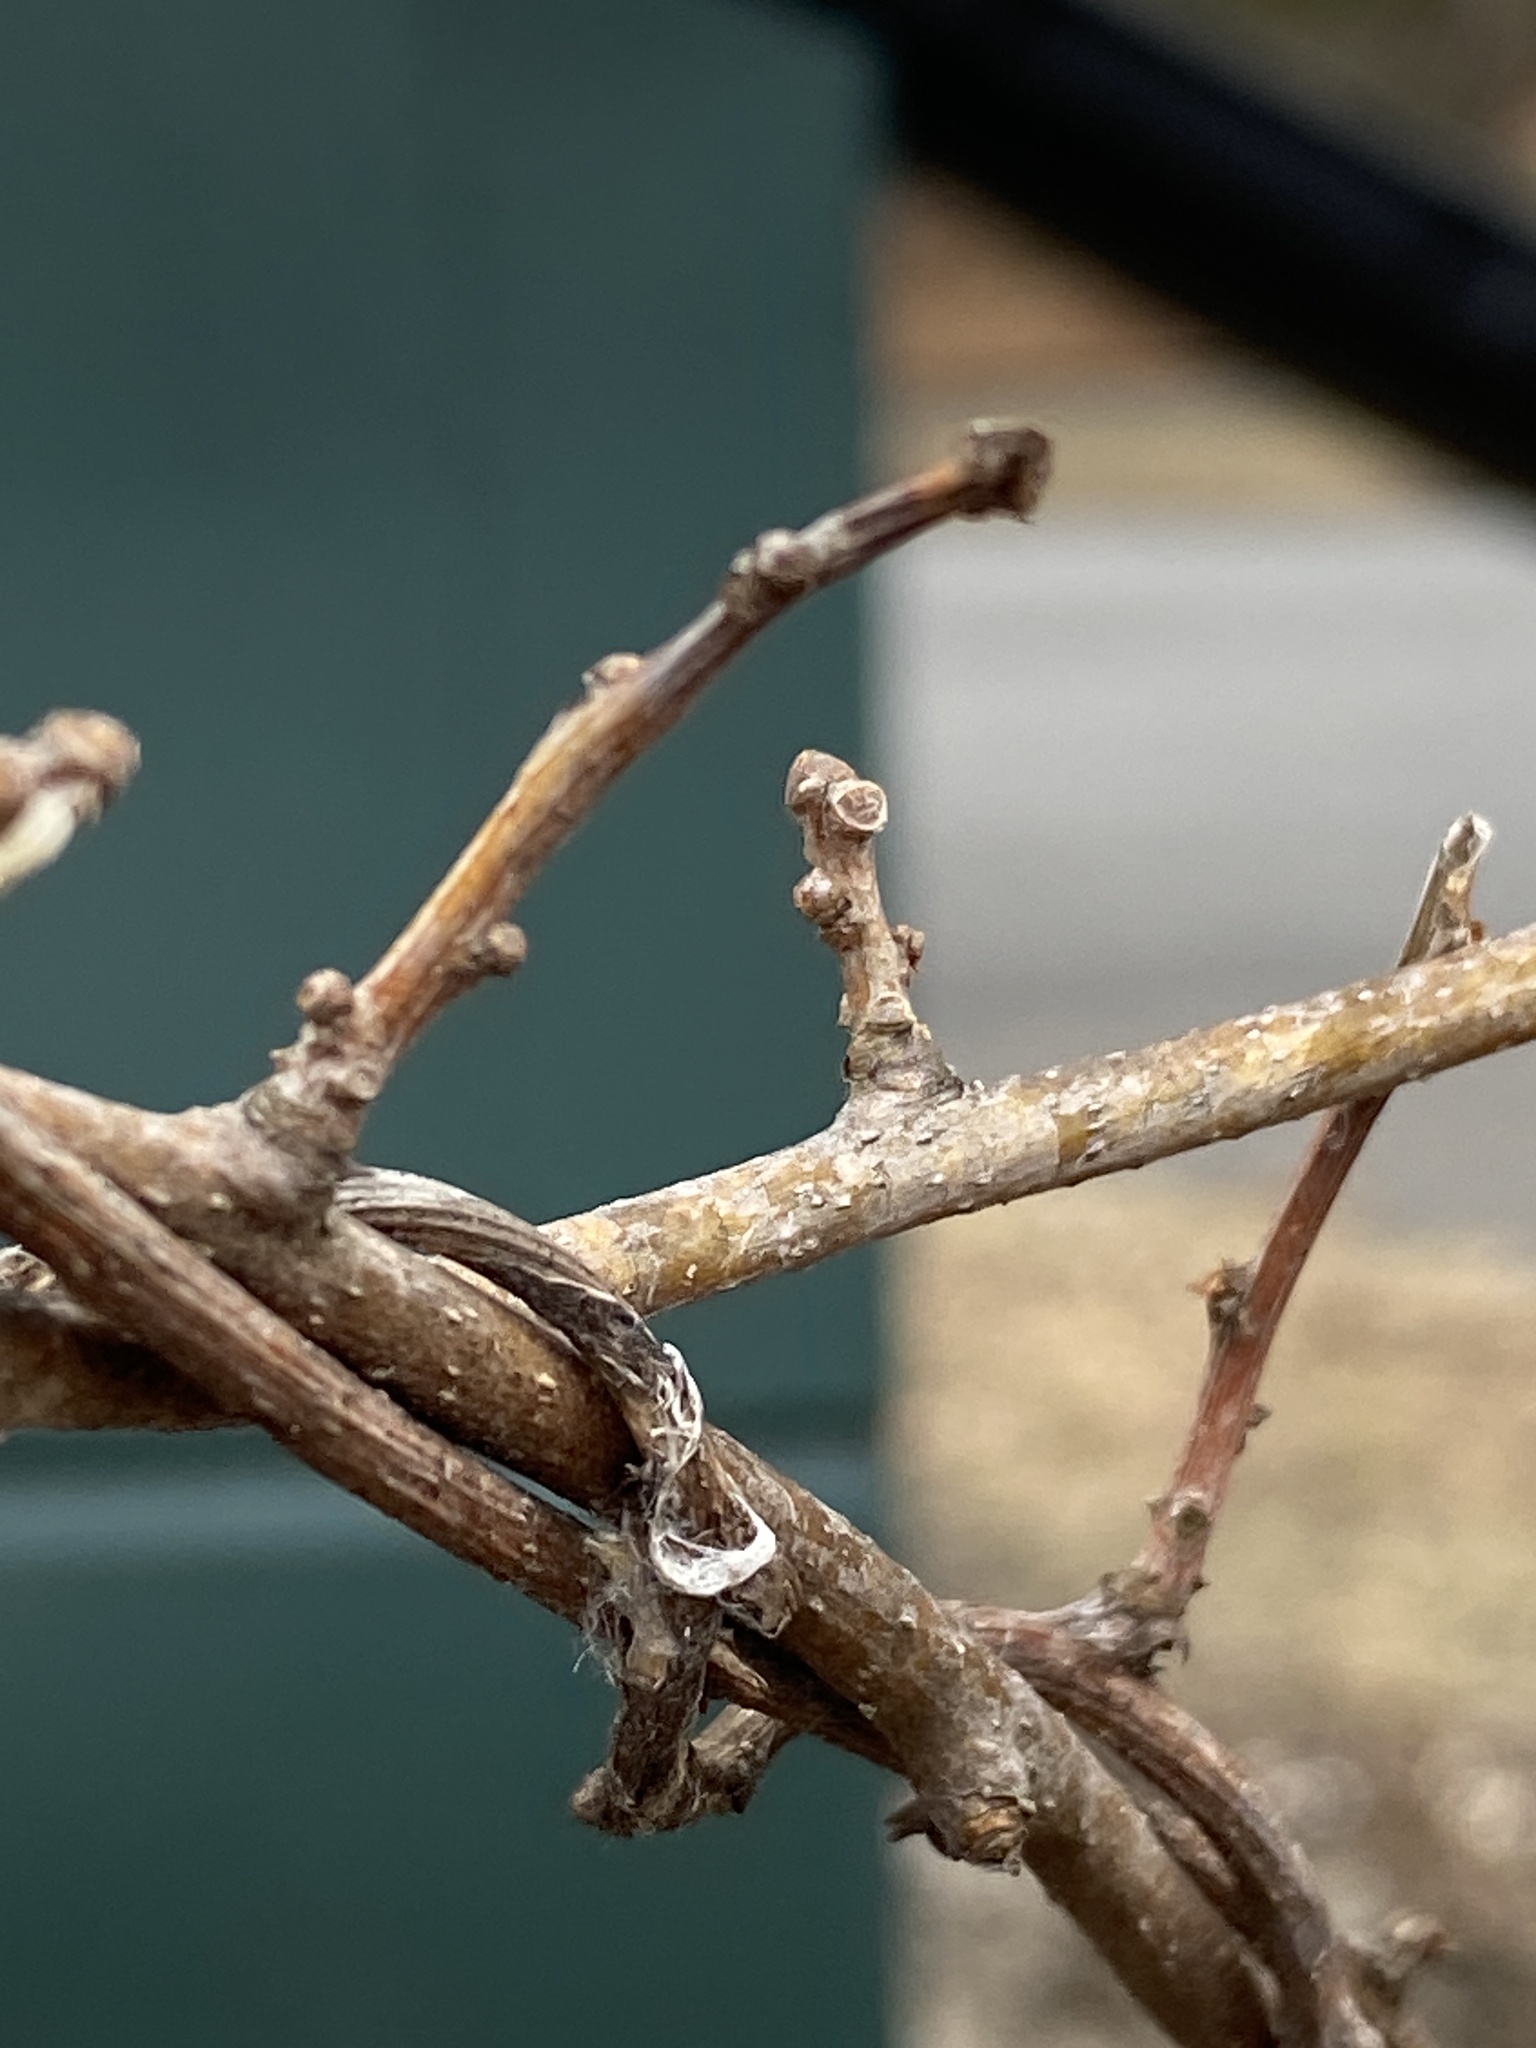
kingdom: Plantae
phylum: Tracheophyta
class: Magnoliopsida
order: Celastrales
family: Celastraceae
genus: Celastrus
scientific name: Celastrus orbiculatus
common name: Oriental bittersweet
